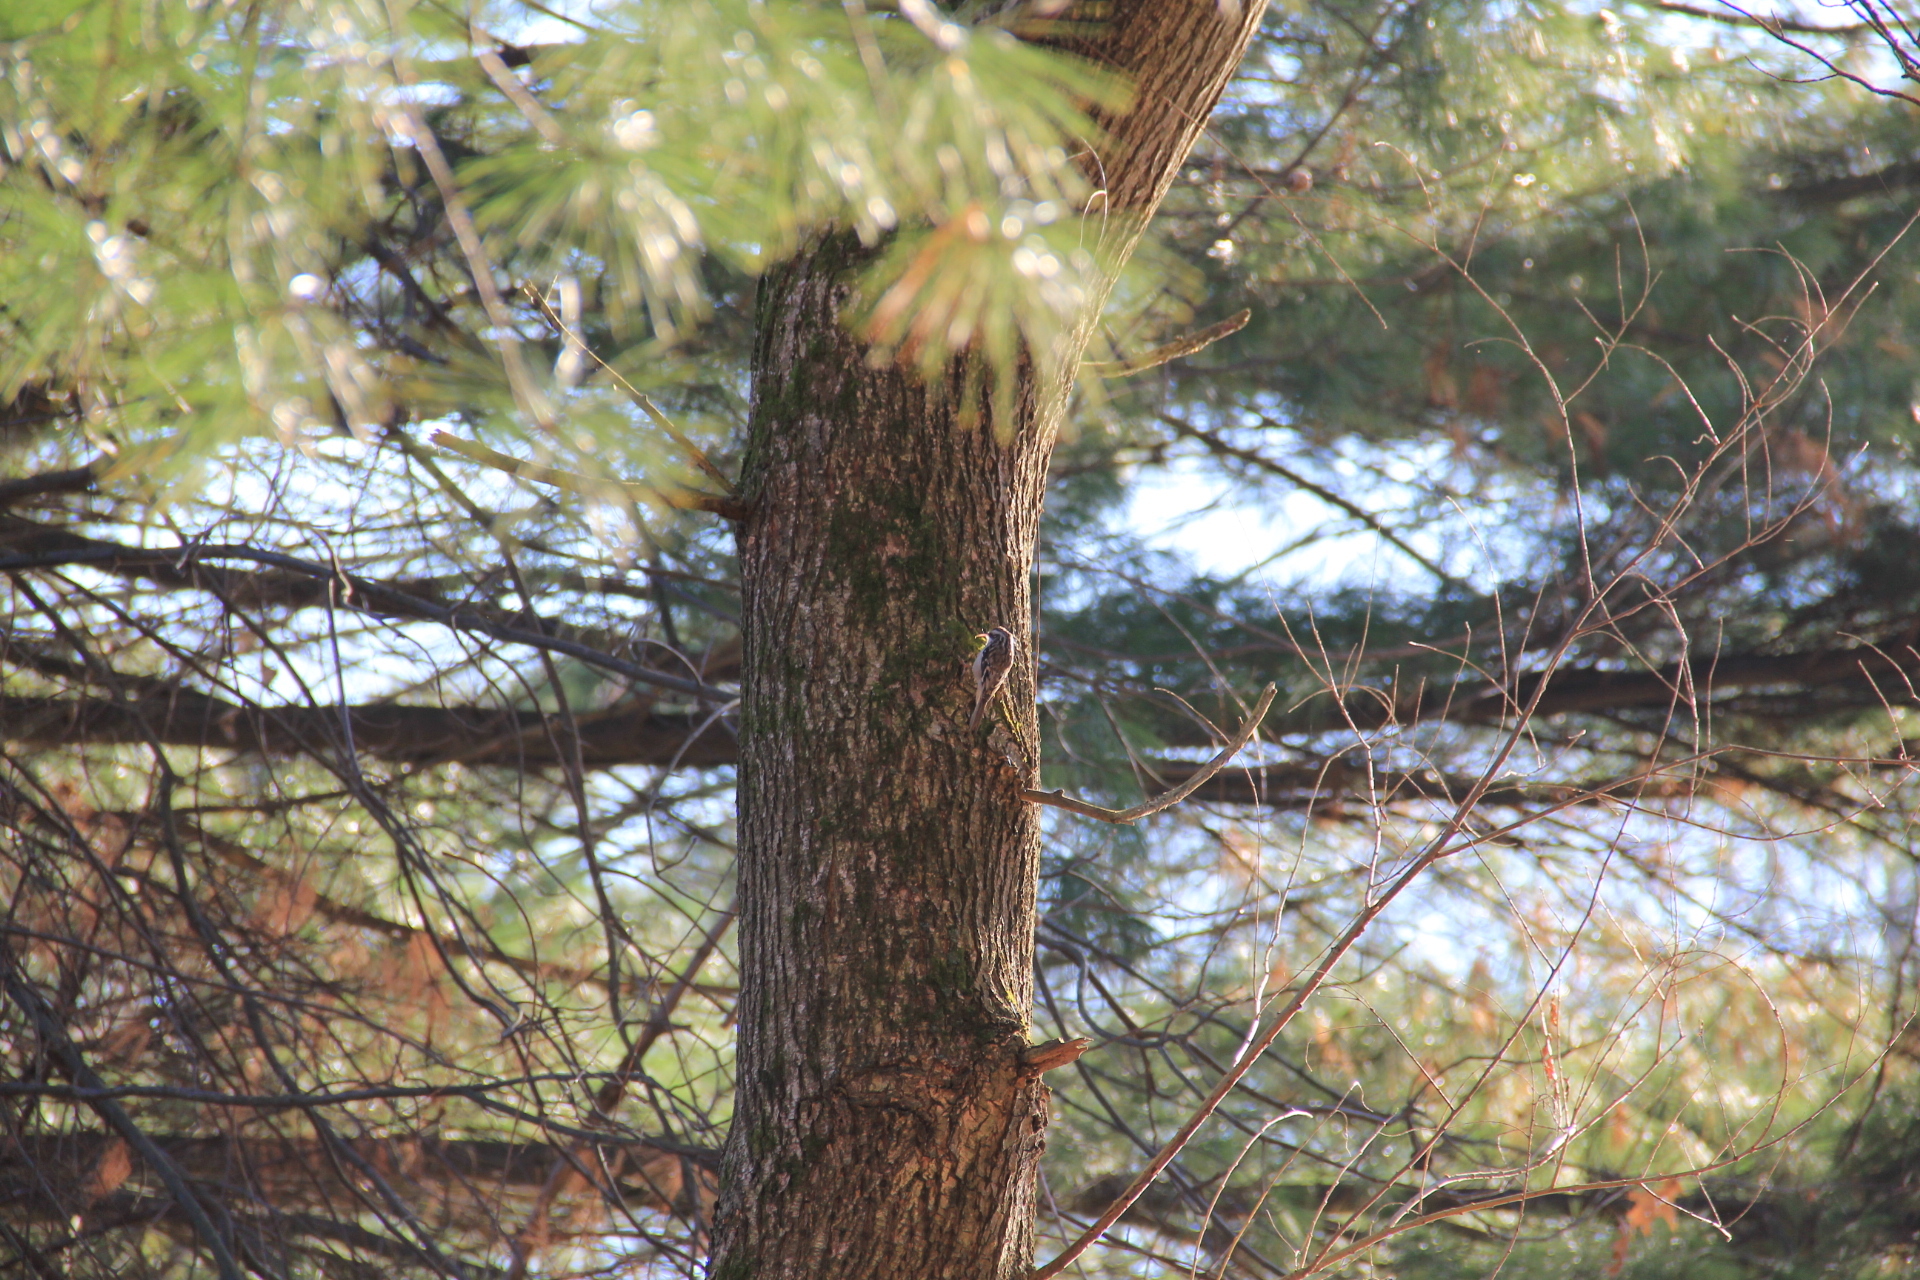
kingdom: Animalia
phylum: Chordata
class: Aves
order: Passeriformes
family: Certhiidae
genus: Certhia
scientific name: Certhia americana
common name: Brown creeper
